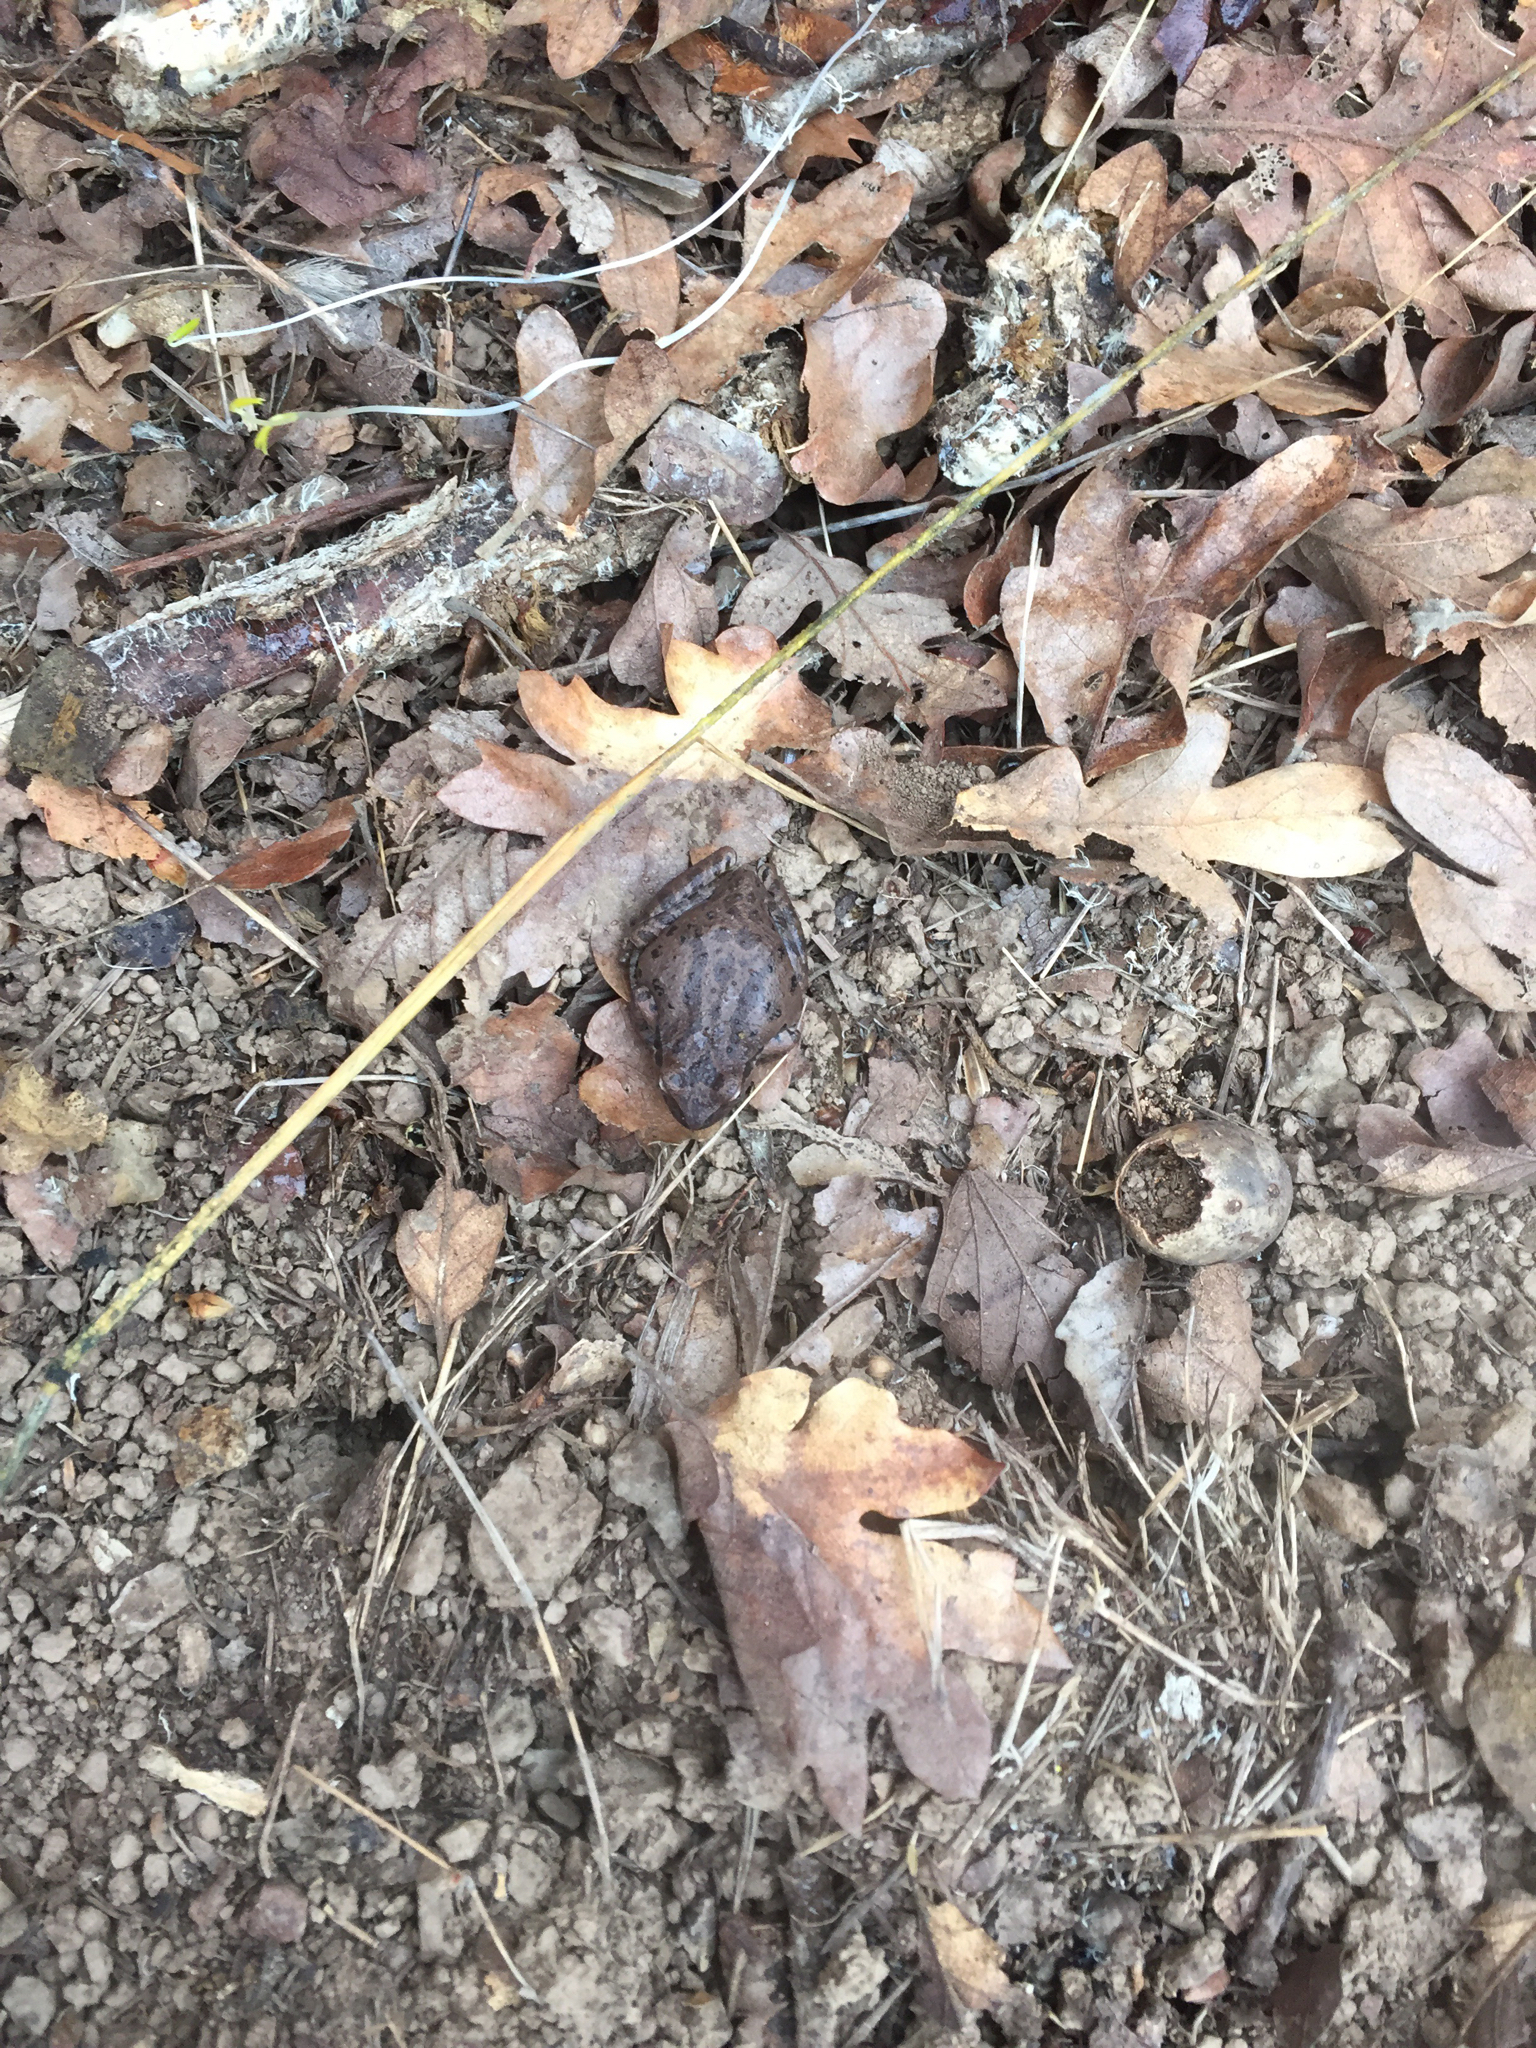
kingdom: Animalia
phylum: Chordata
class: Amphibia
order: Anura
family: Hylidae
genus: Pseudacris
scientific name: Pseudacris regilla
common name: Pacific chorus frog
